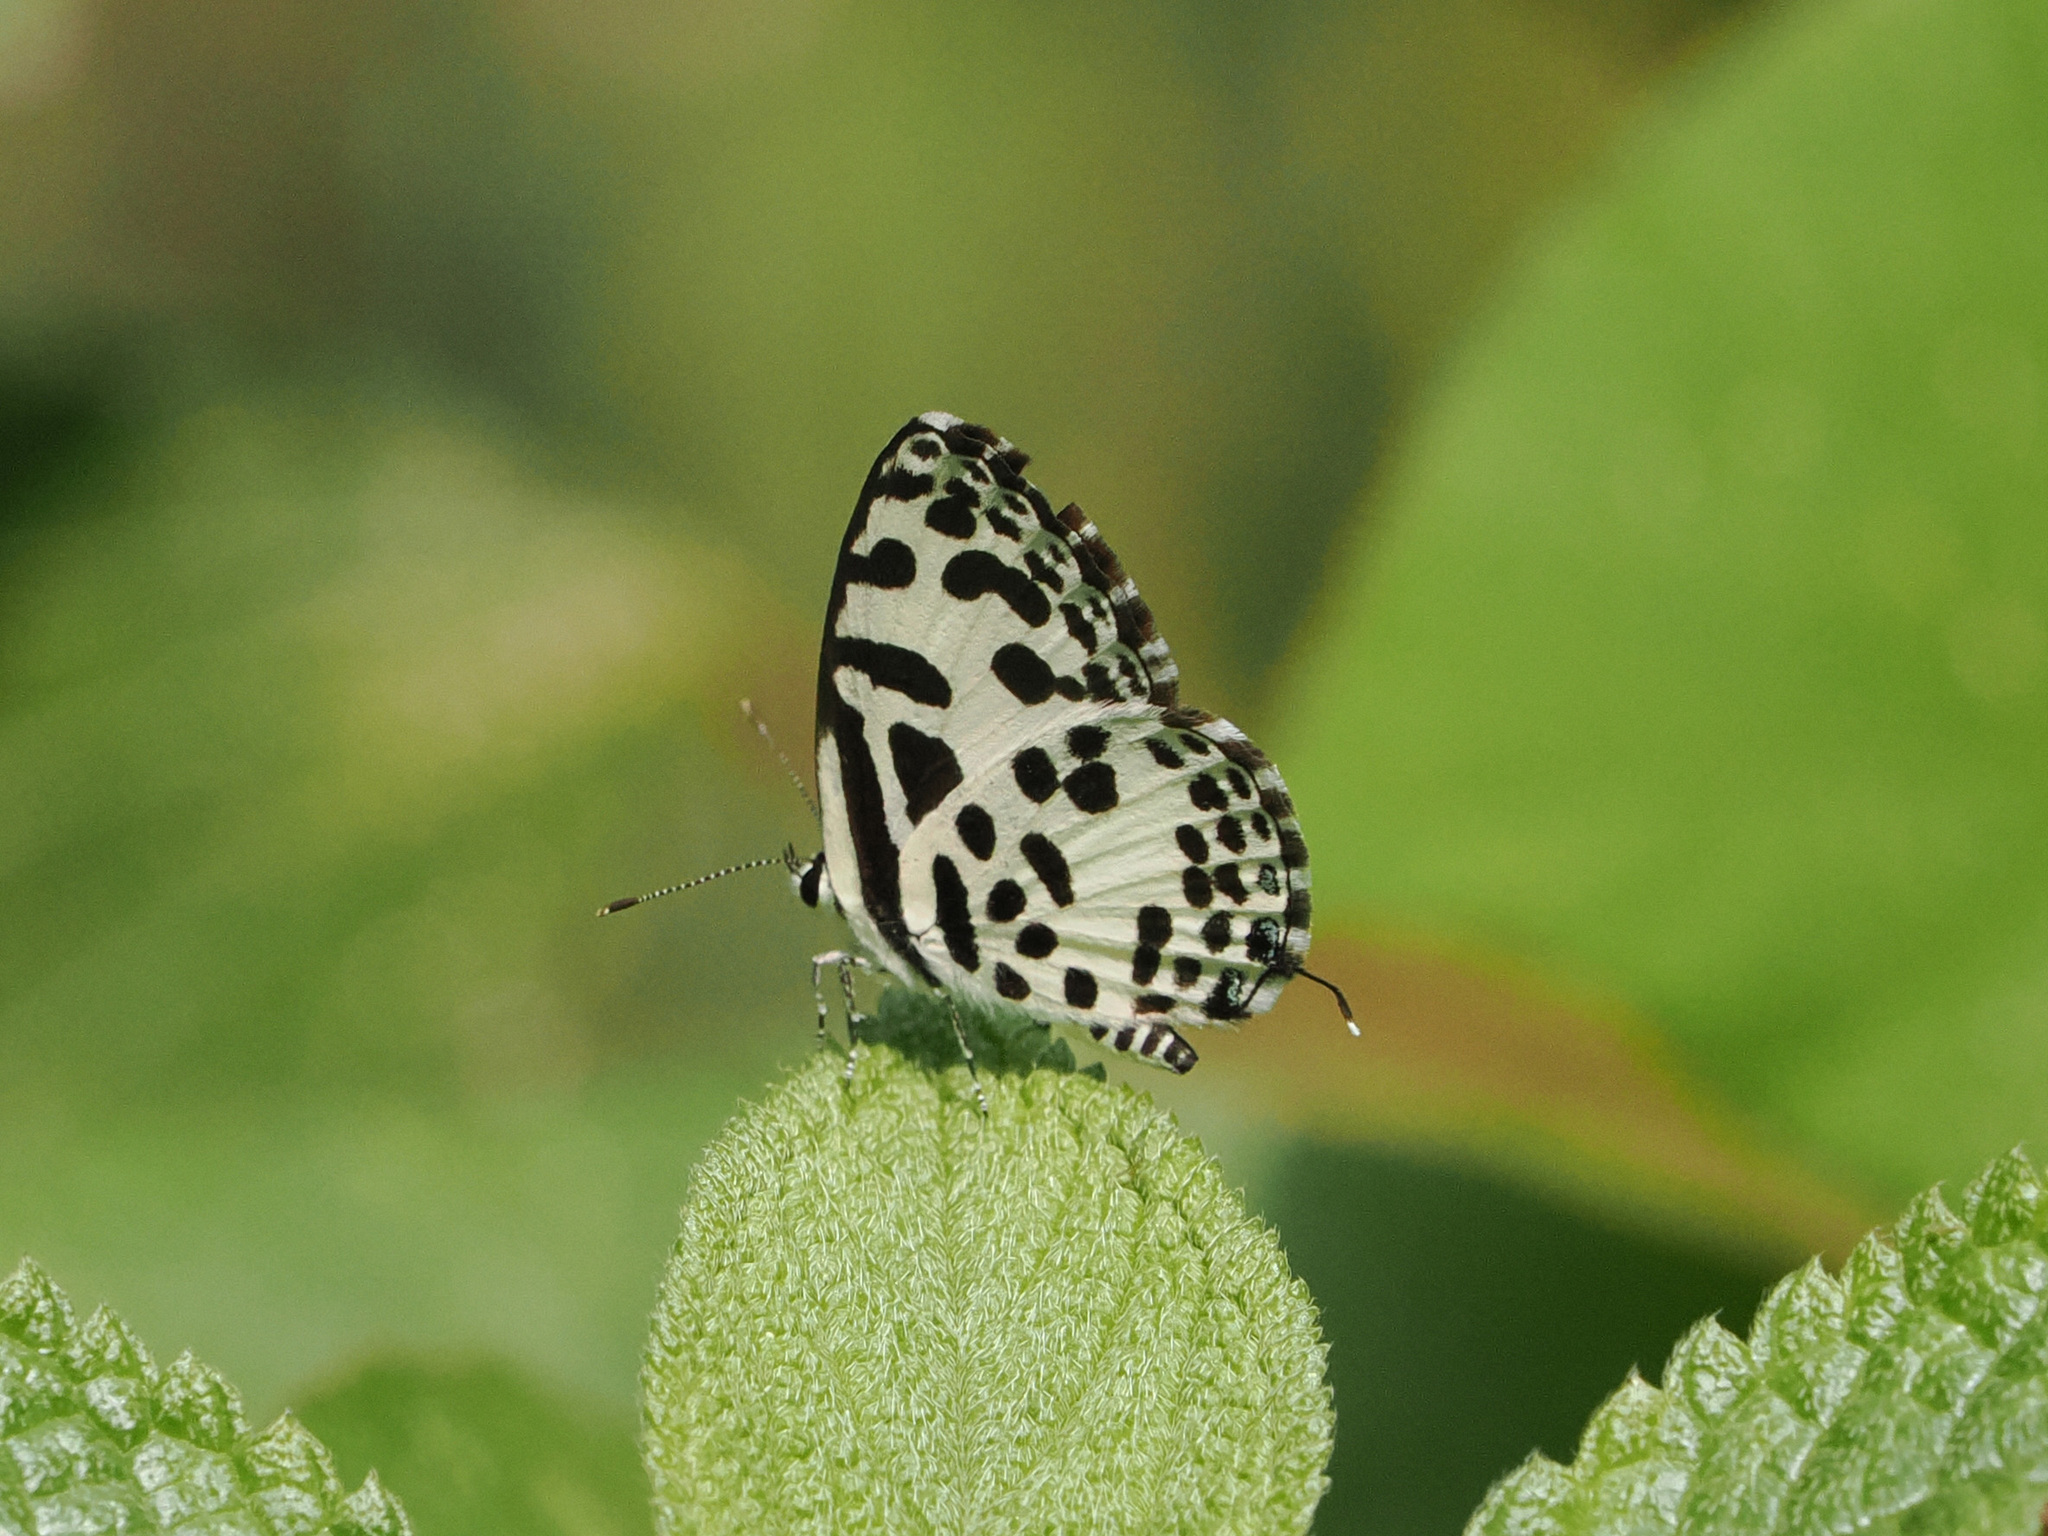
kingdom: Animalia
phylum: Arthropoda
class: Insecta
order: Lepidoptera
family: Lycaenidae
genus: Castalius
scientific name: Castalius rosimon
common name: Common pierrot
